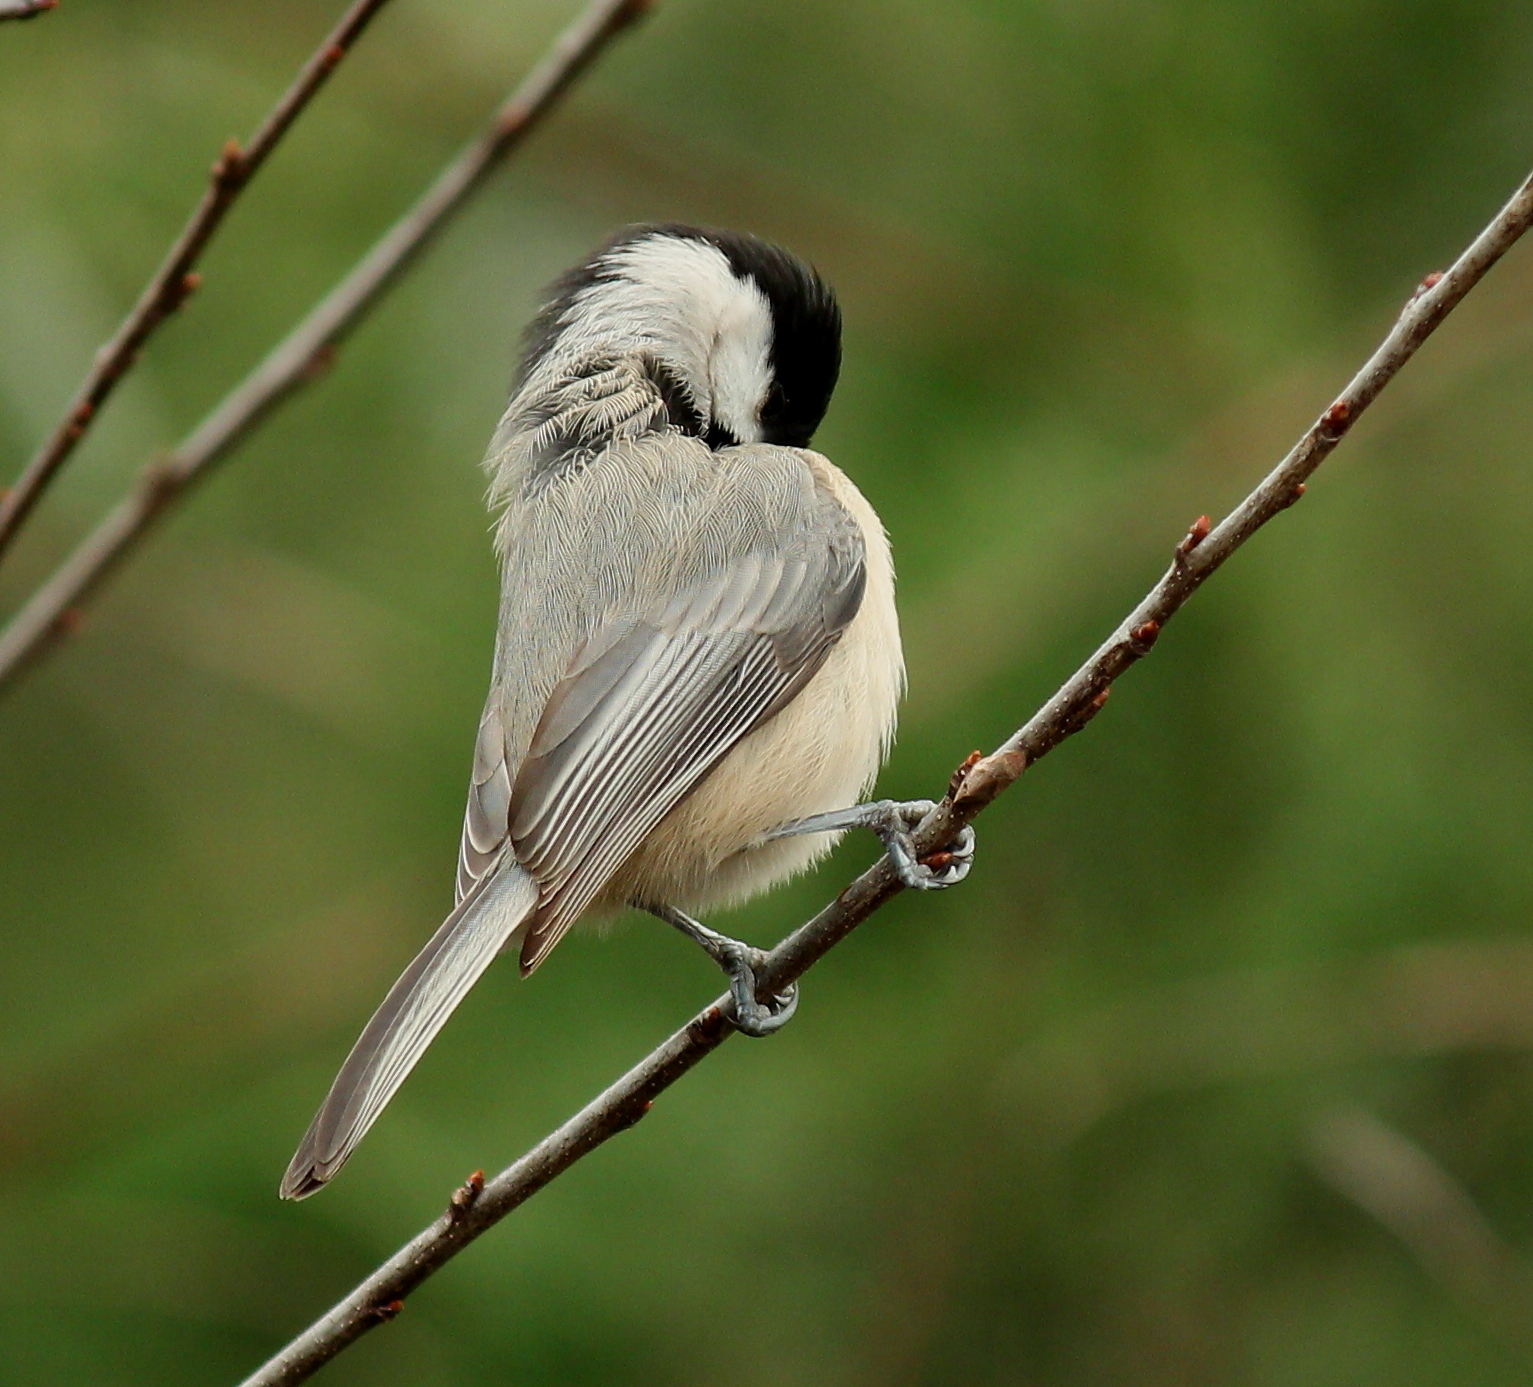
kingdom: Animalia
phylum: Chordata
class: Aves
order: Passeriformes
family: Paridae
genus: Poecile
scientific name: Poecile carolinensis
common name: Carolina chickadee
